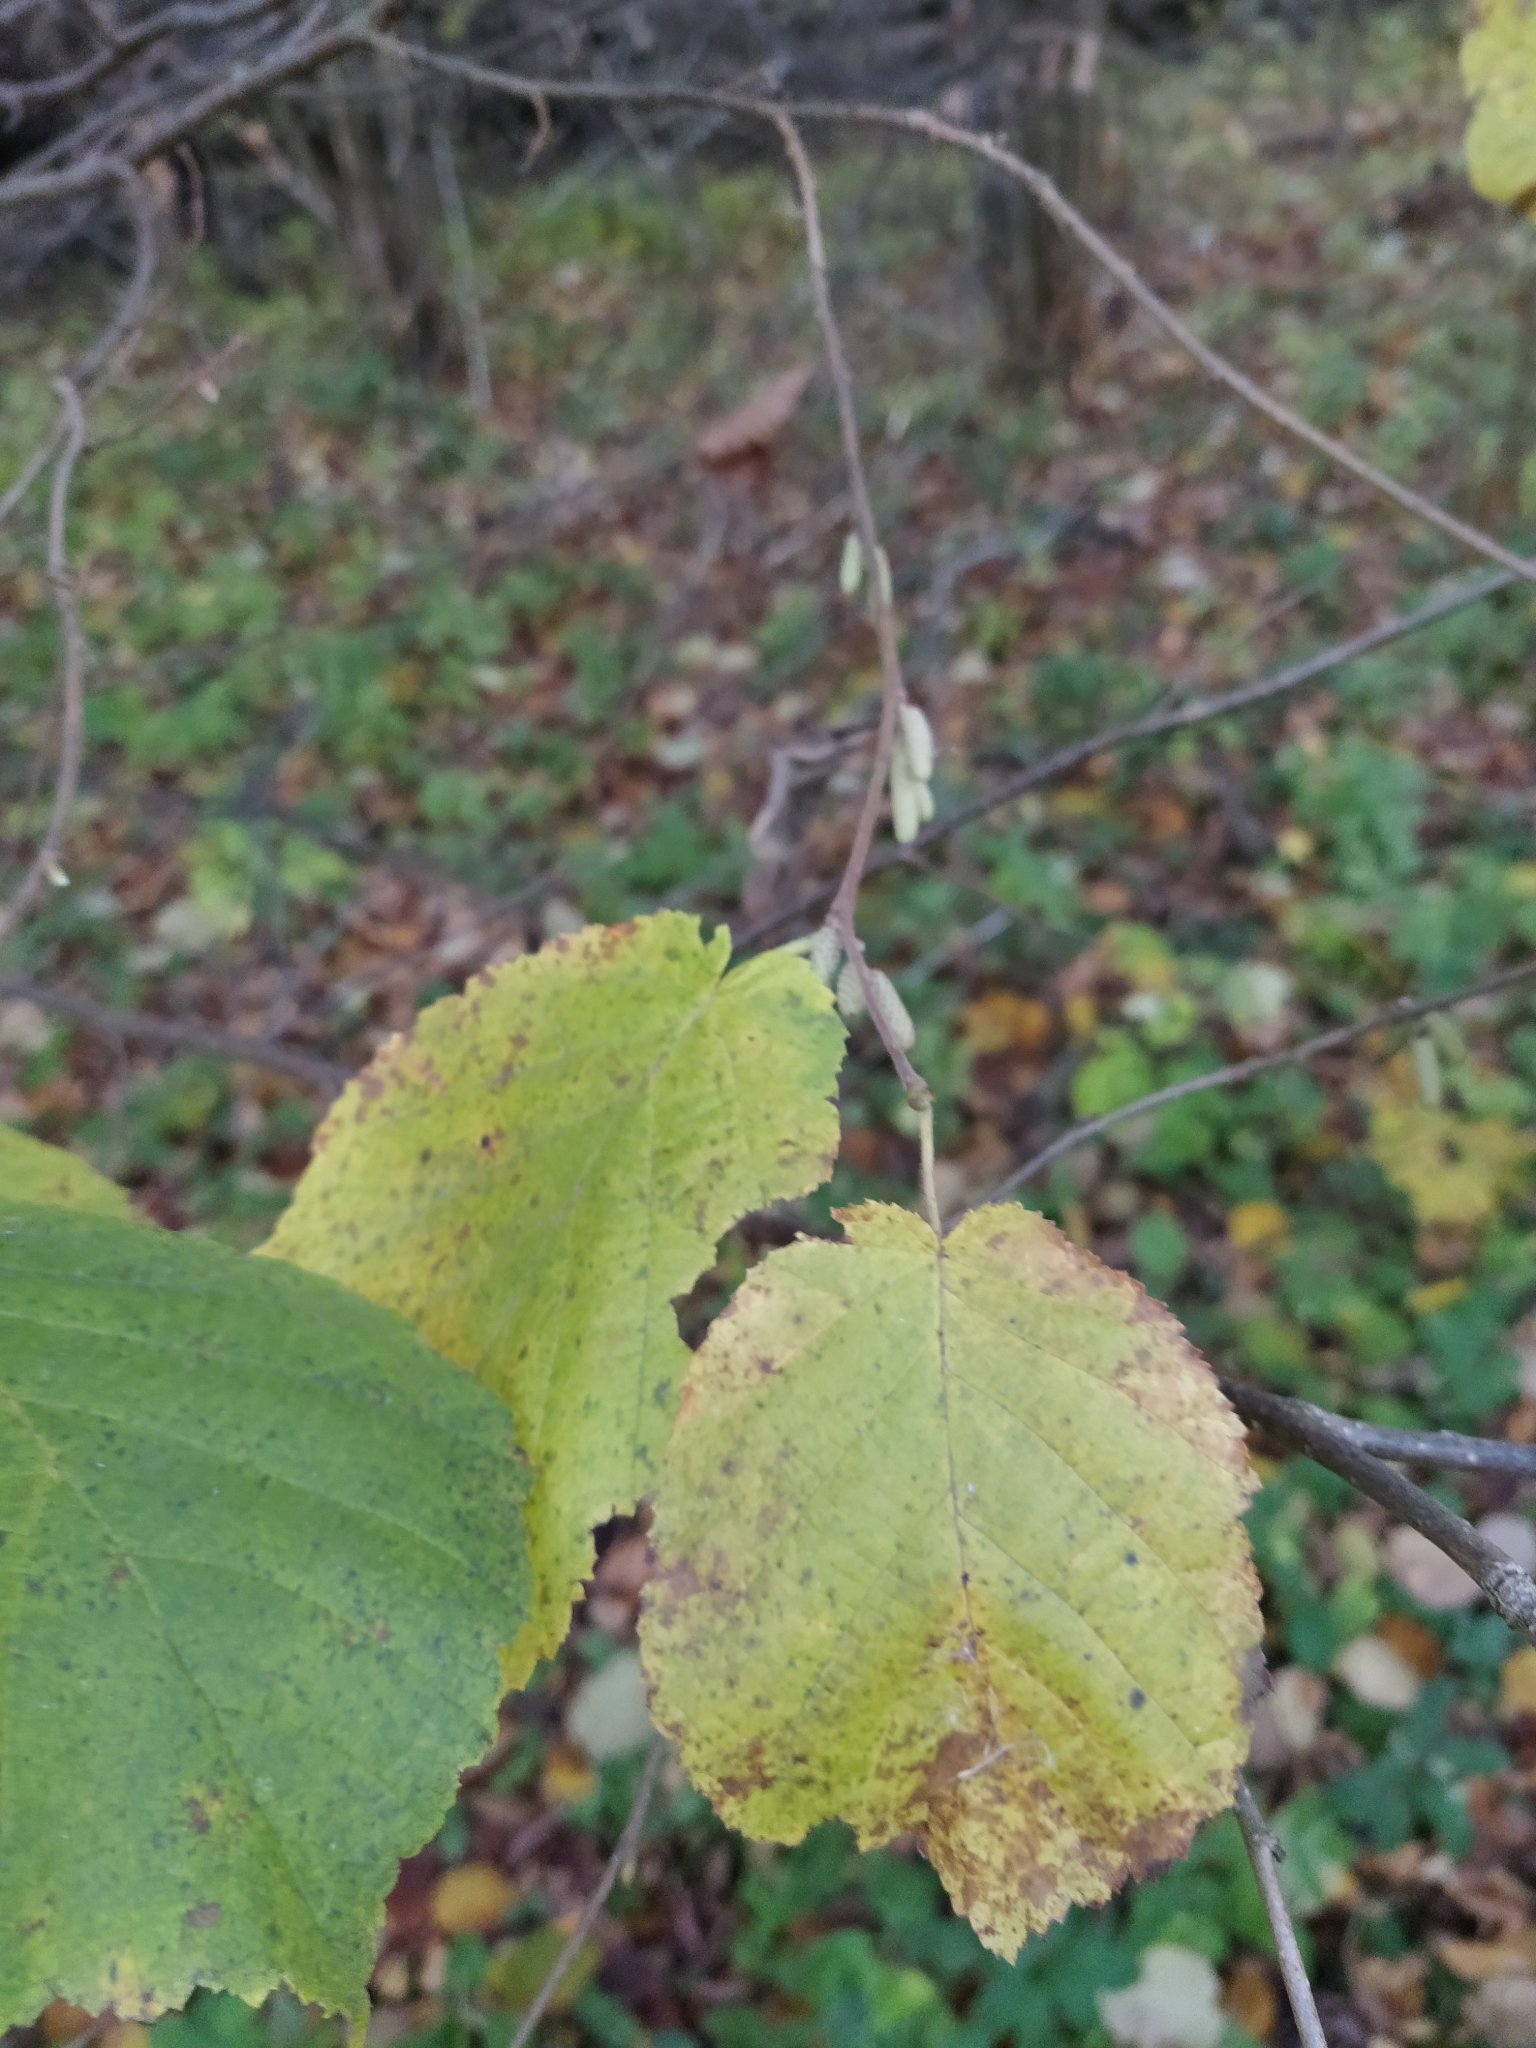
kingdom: Plantae
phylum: Tracheophyta
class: Magnoliopsida
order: Fagales
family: Betulaceae
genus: Corylus
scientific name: Corylus avellana
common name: European hazel
